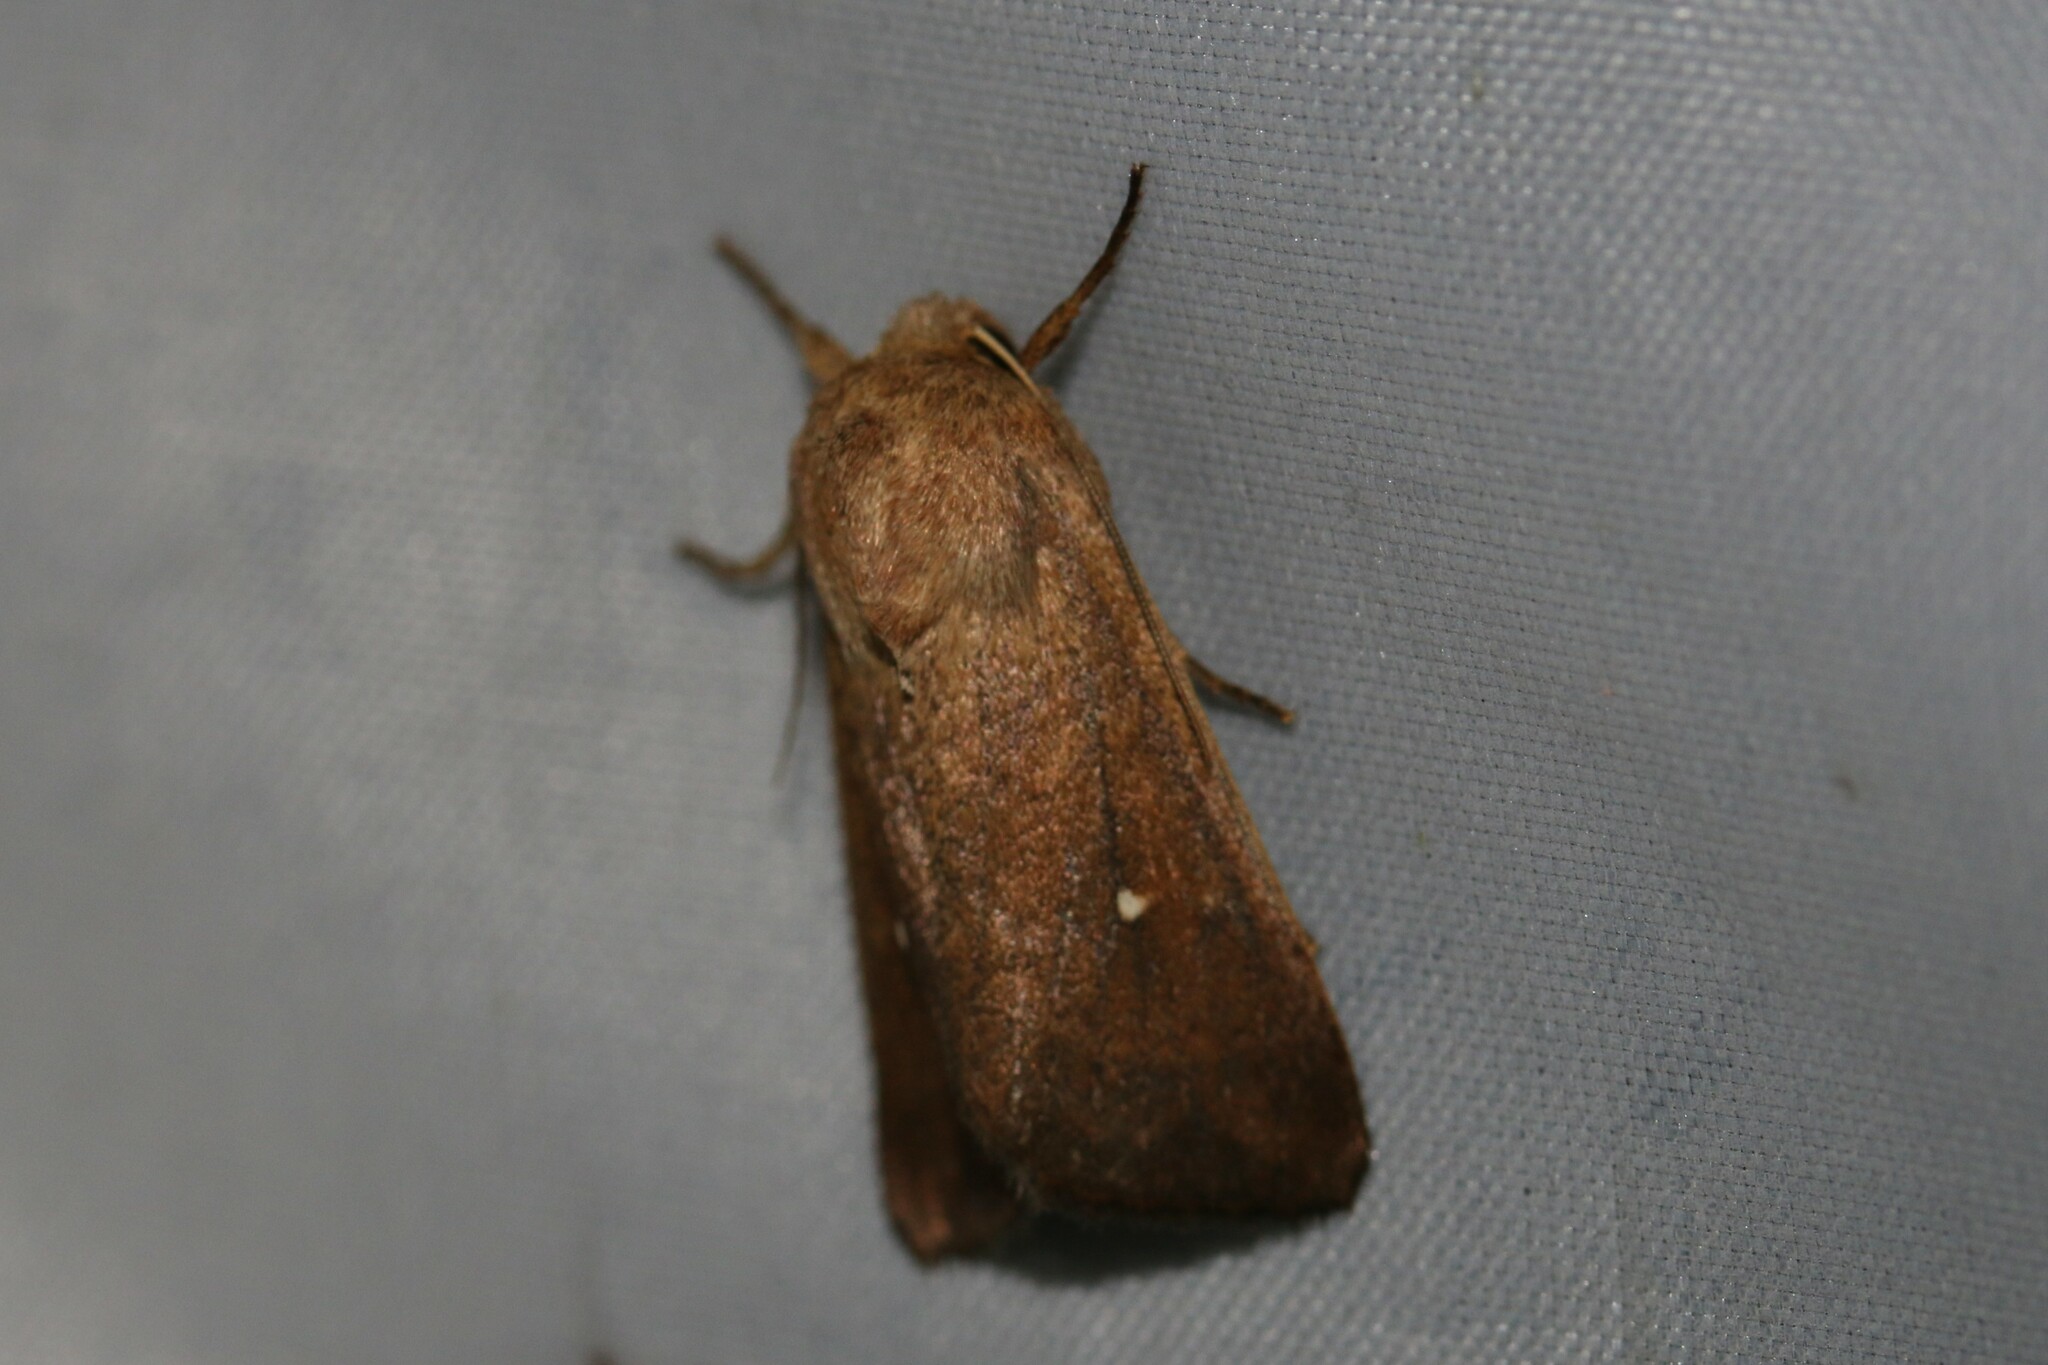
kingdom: Animalia
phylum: Arthropoda
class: Insecta
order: Lepidoptera
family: Noctuidae
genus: Mythimna
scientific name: Mythimna albipuncta
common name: White-point
